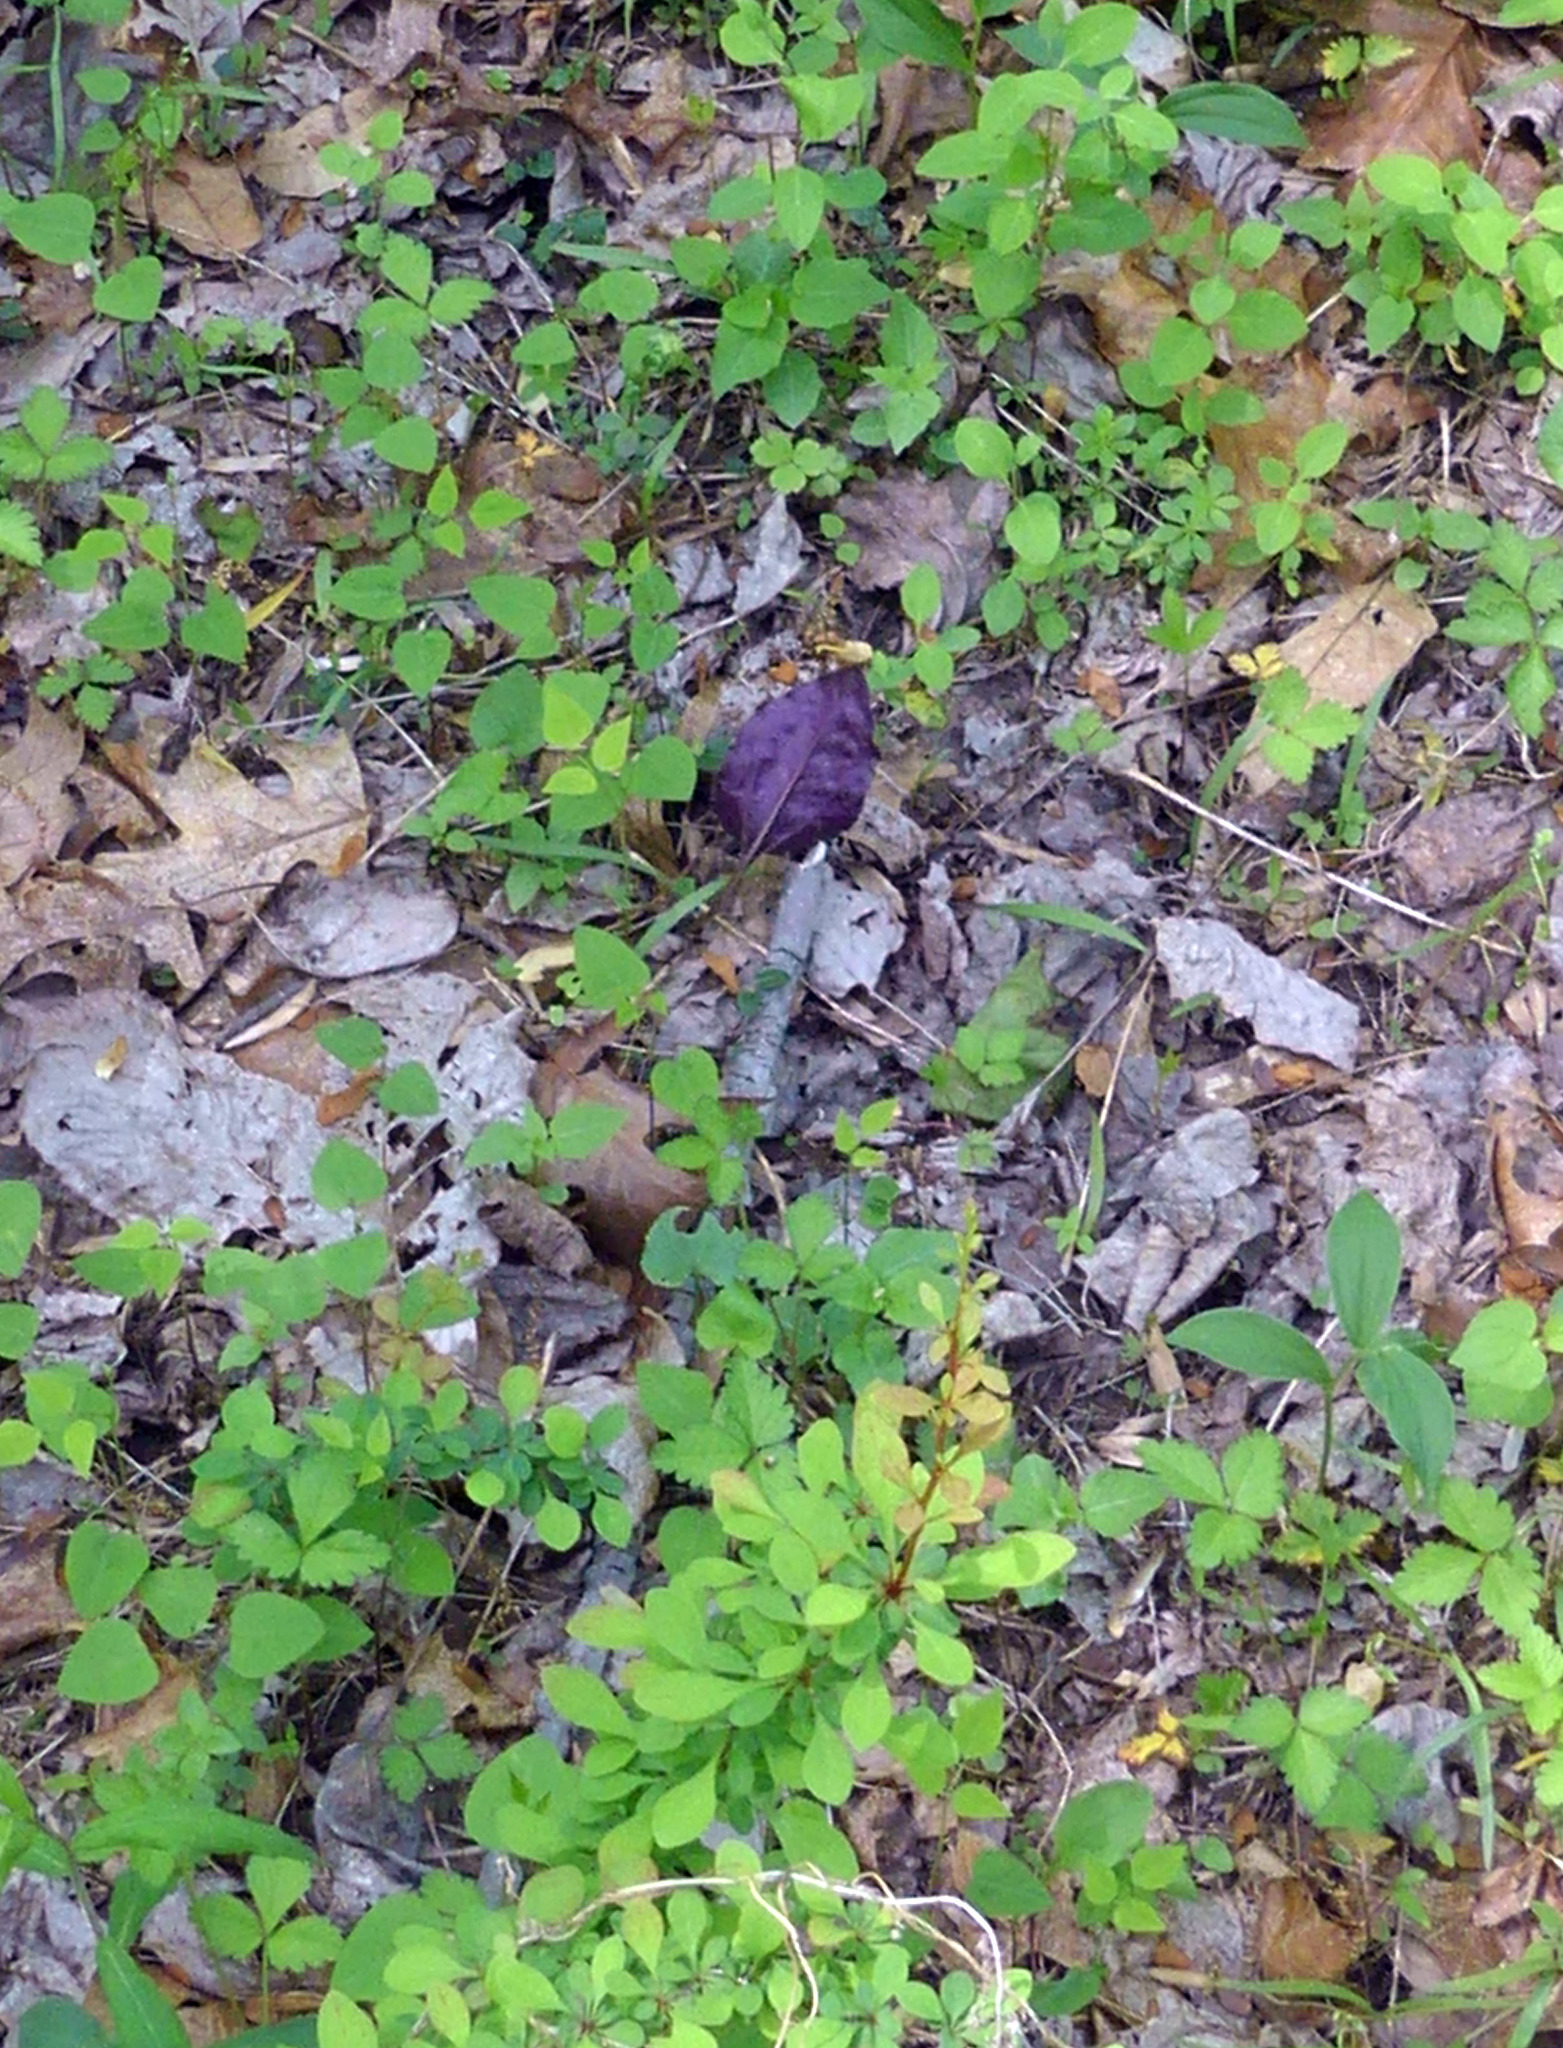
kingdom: Plantae
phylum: Tracheophyta
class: Liliopsida
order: Asparagales
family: Orchidaceae
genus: Tipularia
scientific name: Tipularia discolor
